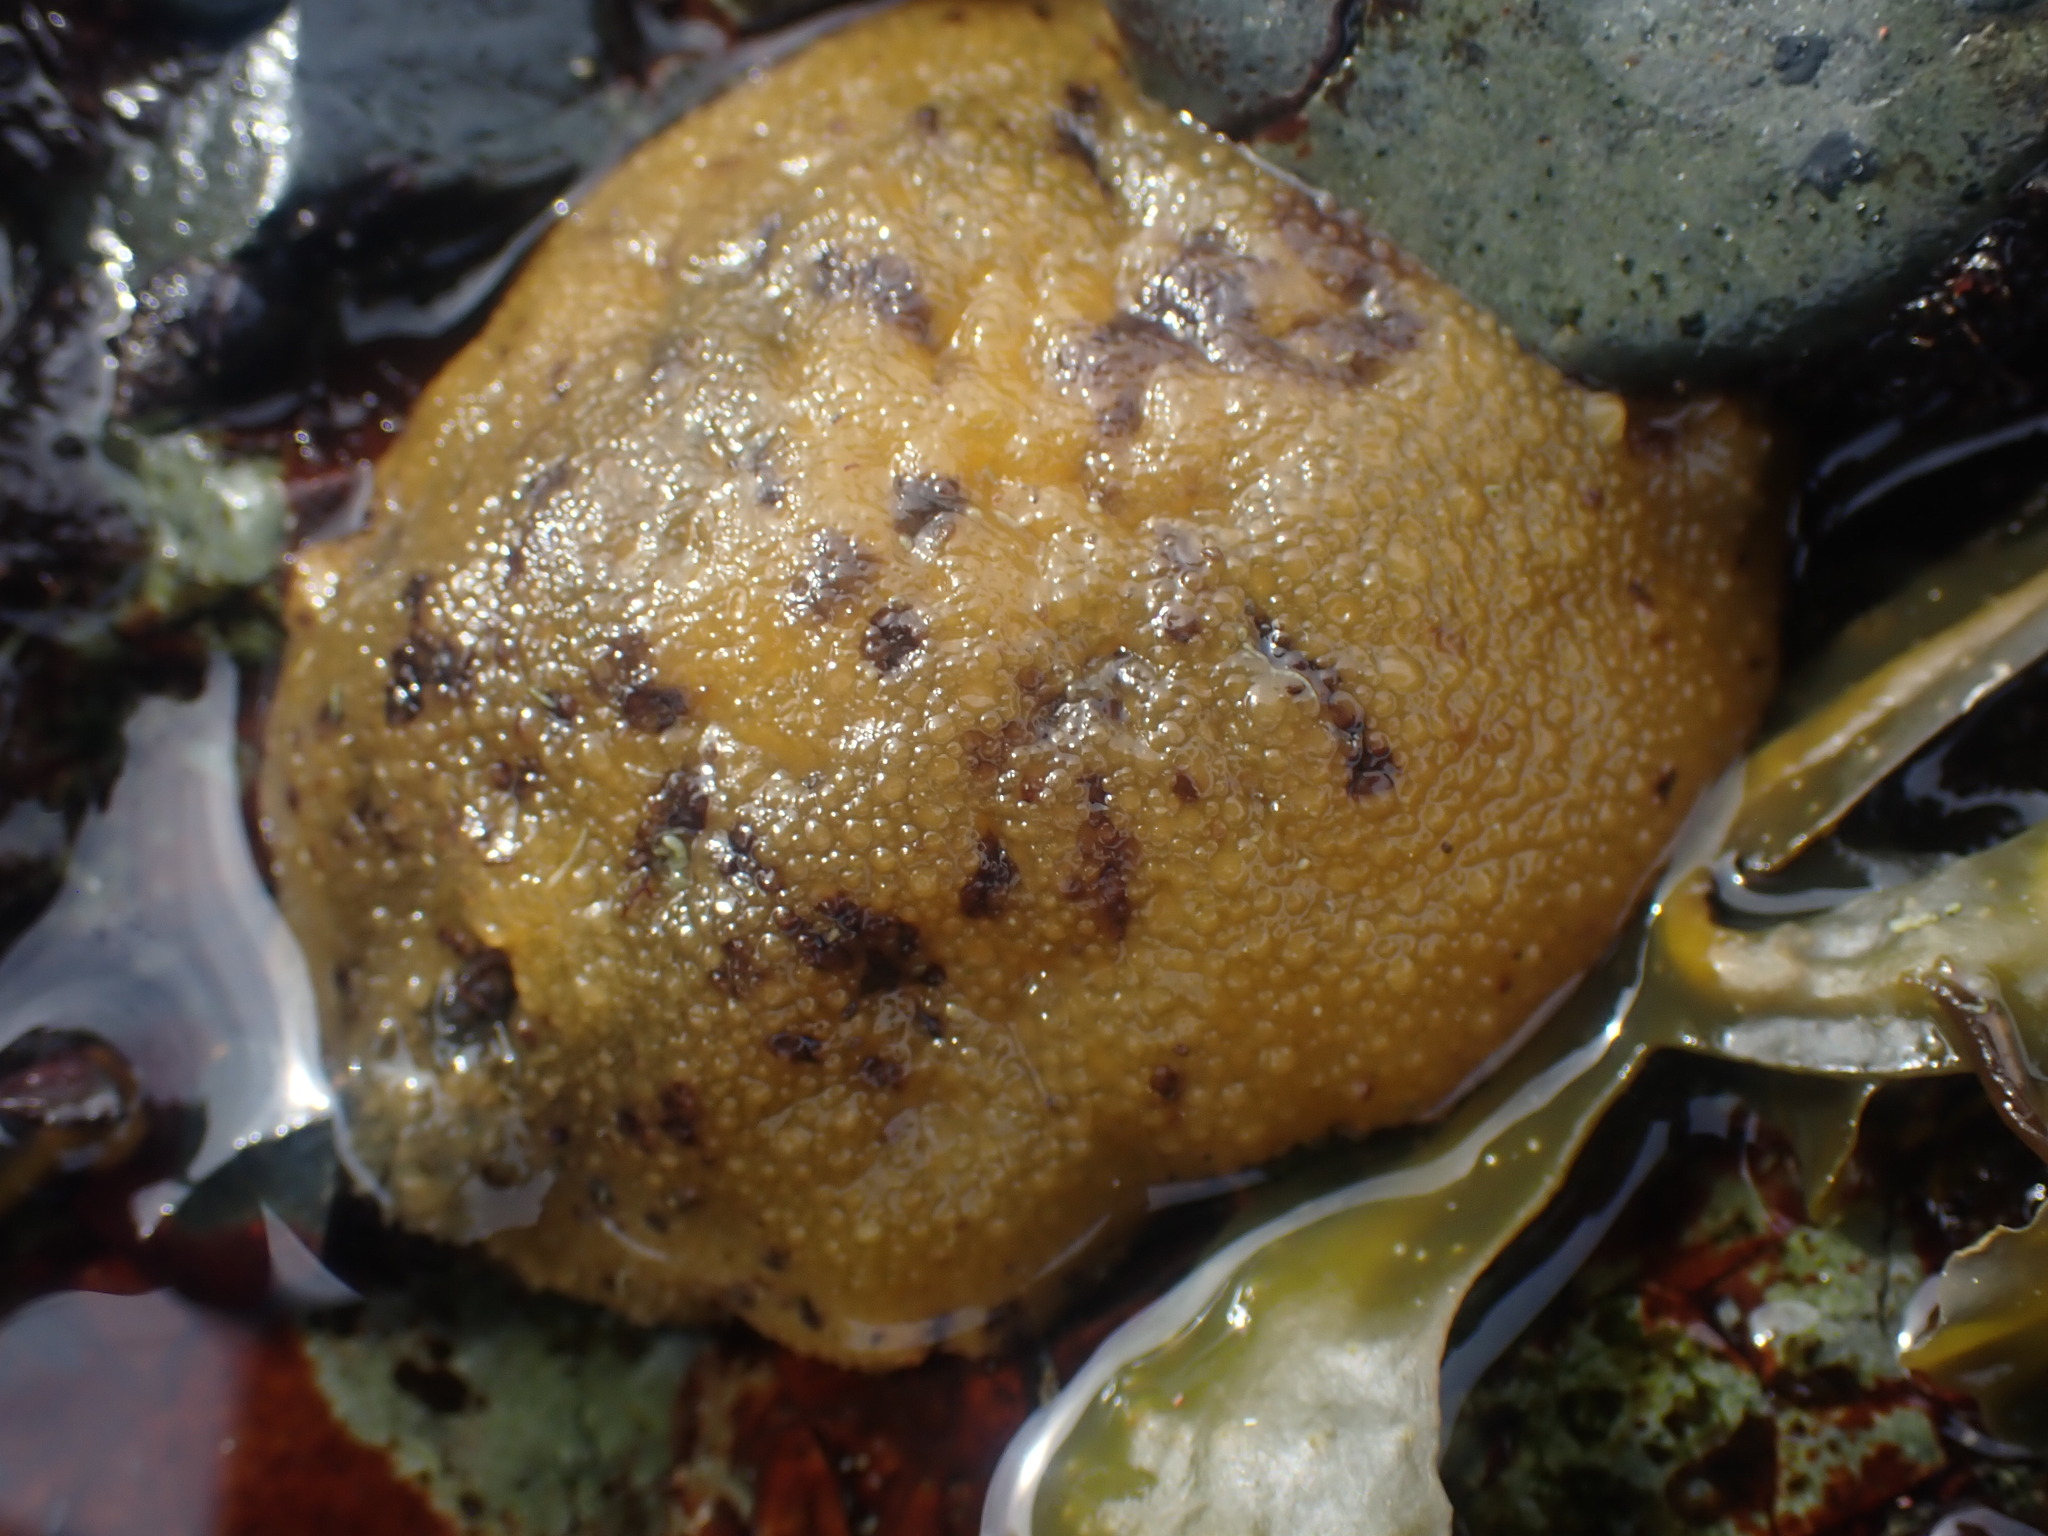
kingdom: Animalia
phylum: Mollusca
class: Gastropoda
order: Nudibranchia
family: Dorididae
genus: Doris
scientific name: Doris montereyensis
